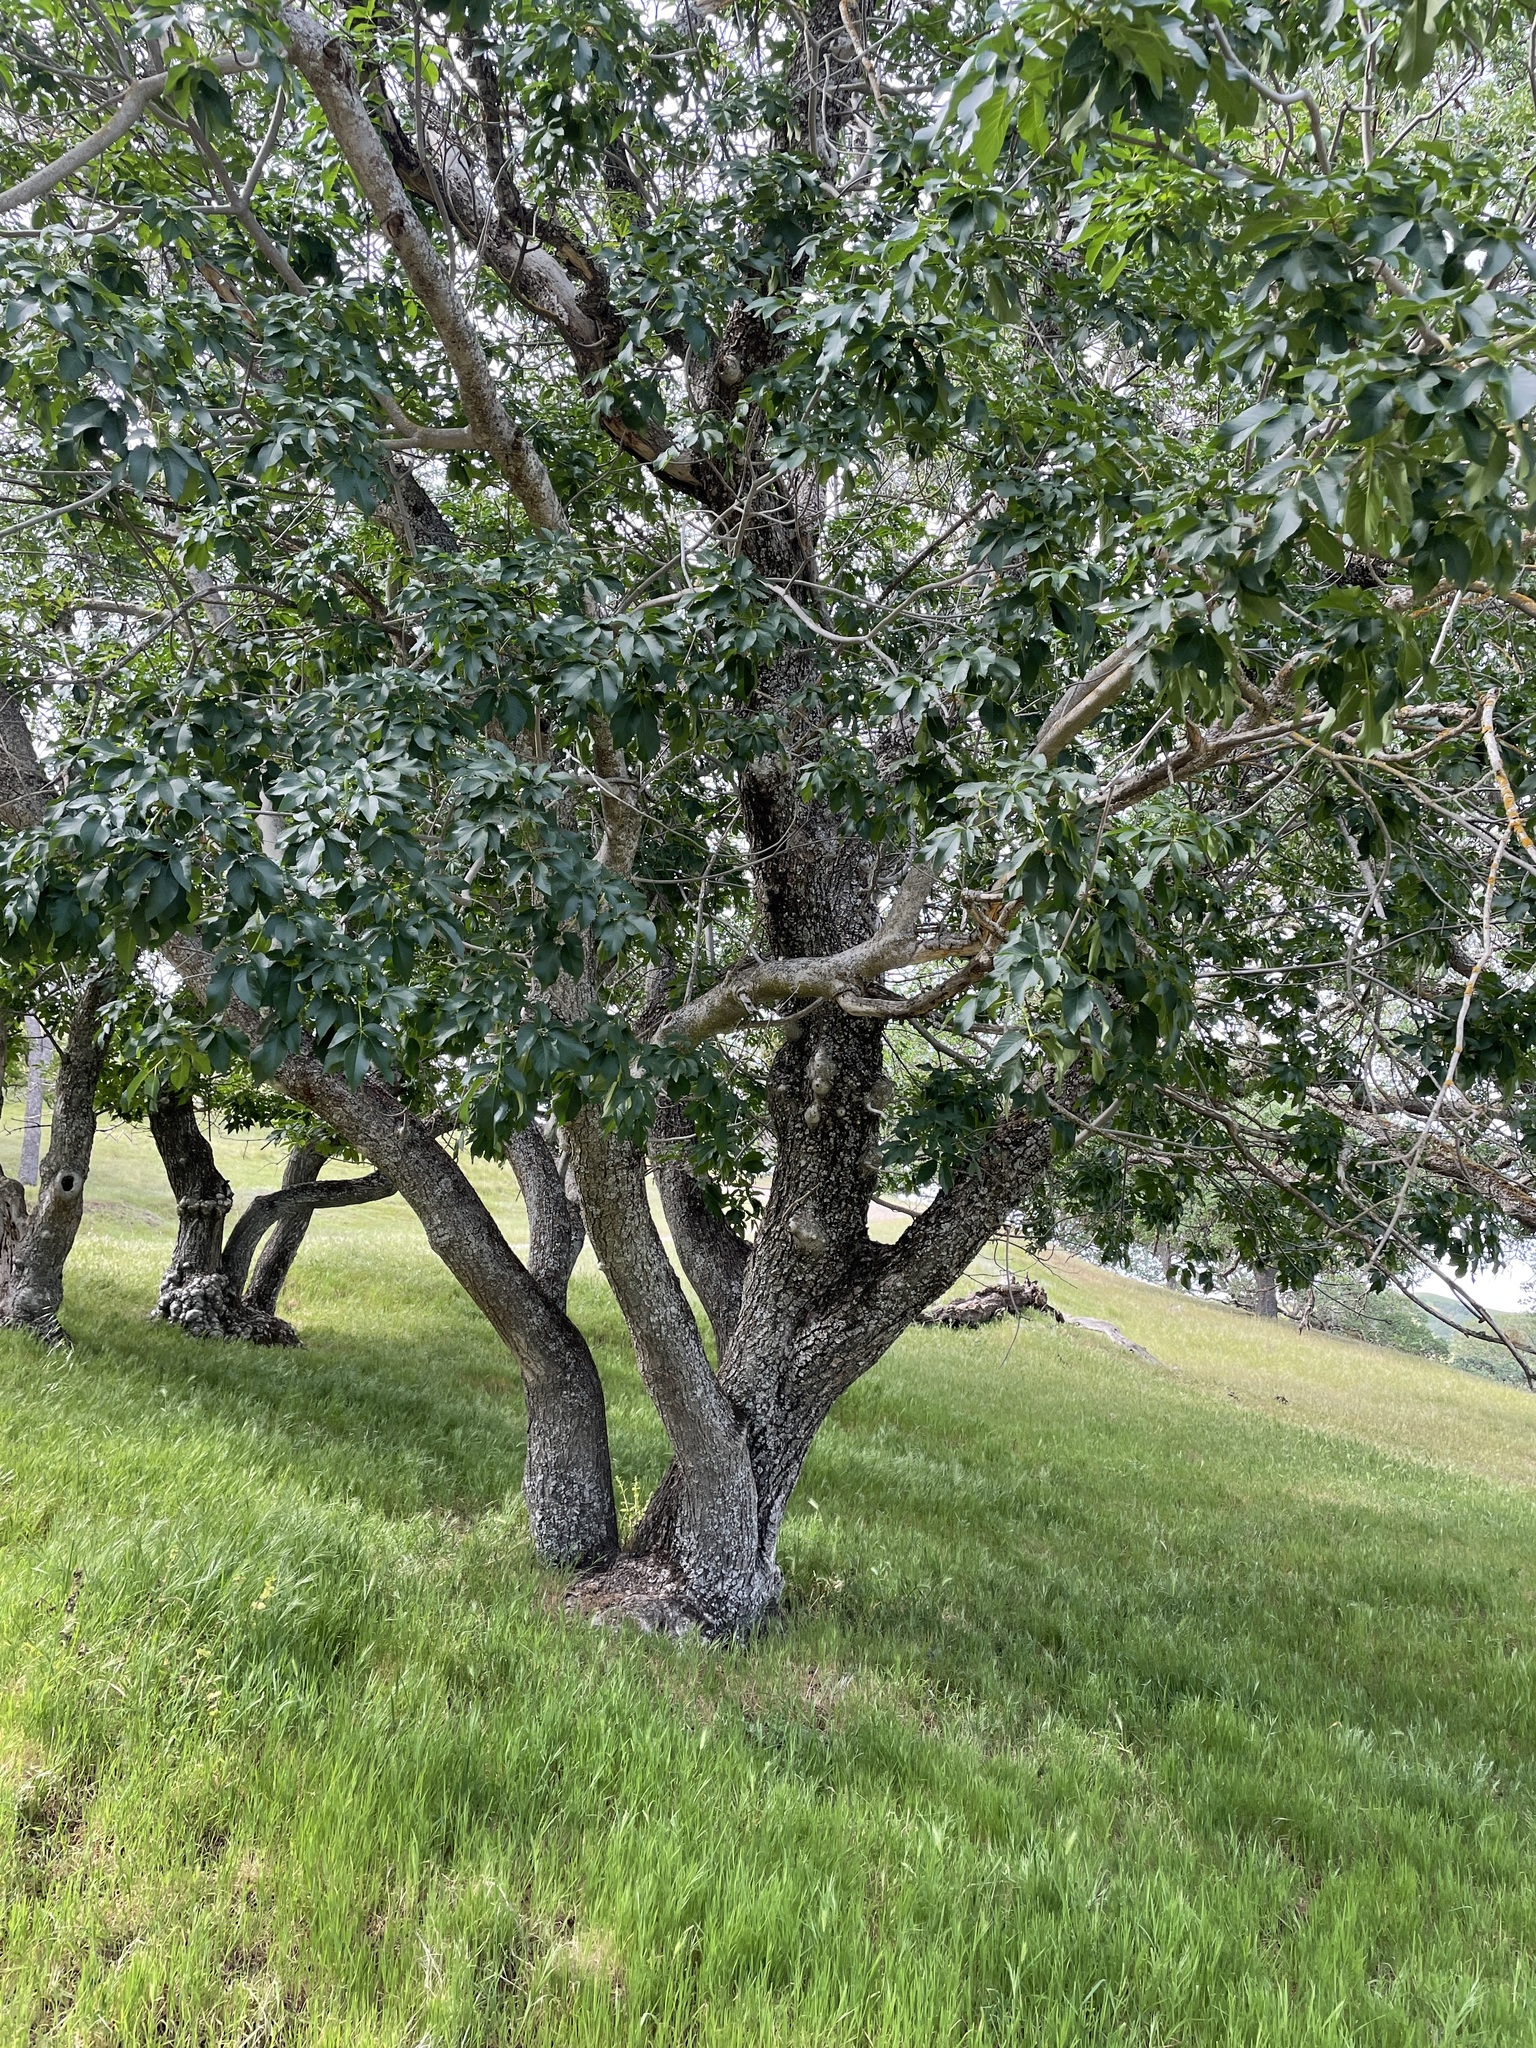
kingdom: Plantae
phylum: Tracheophyta
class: Magnoliopsida
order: Sapindales
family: Sapindaceae
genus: Aesculus
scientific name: Aesculus californica
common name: California buckeye
